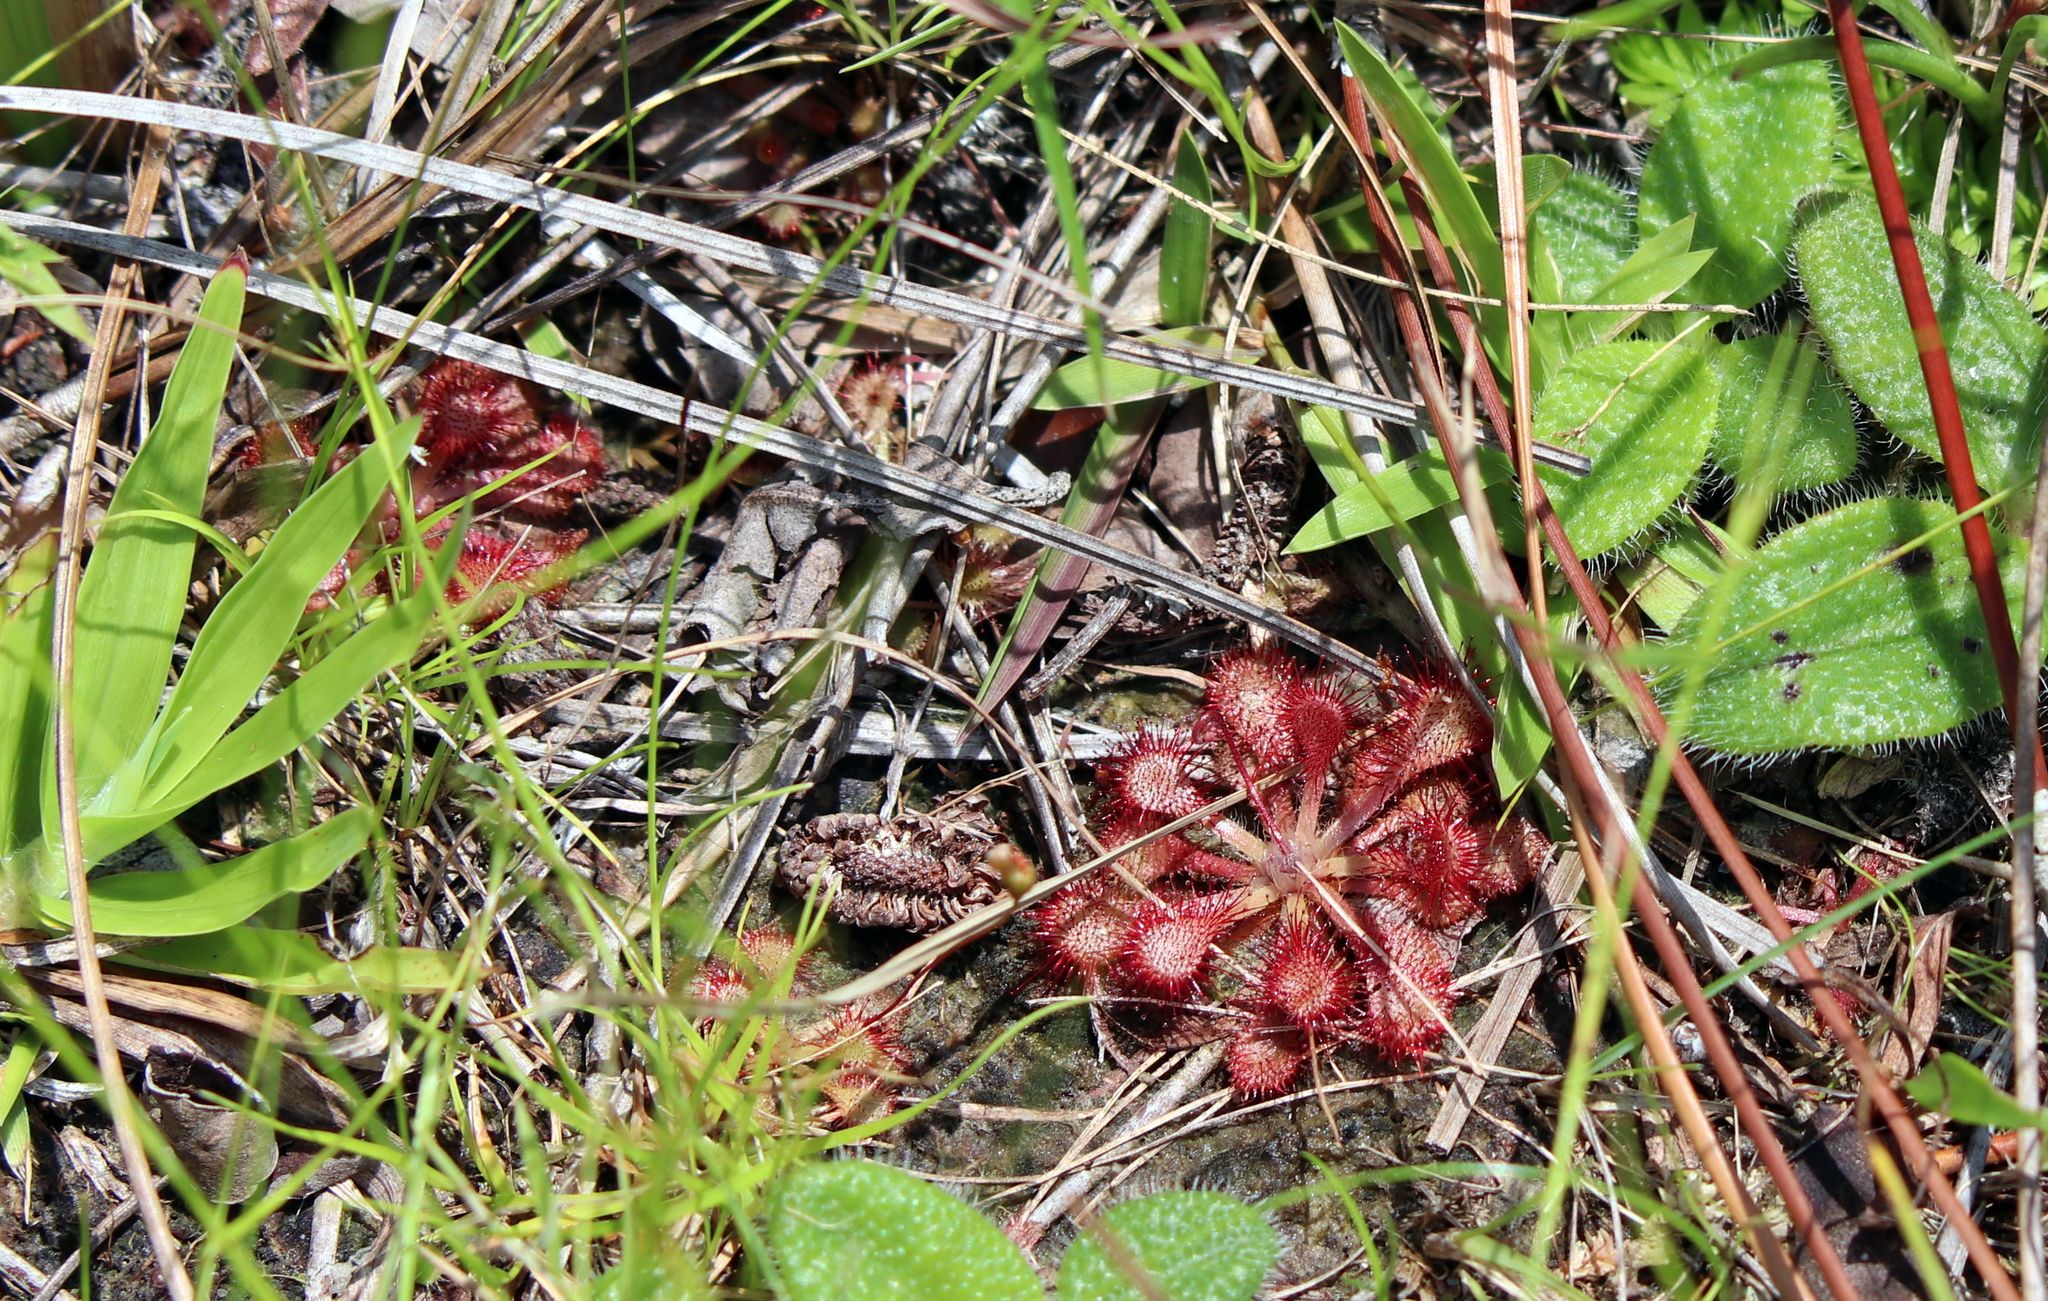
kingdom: Plantae
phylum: Tracheophyta
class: Magnoliopsida
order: Caryophyllales
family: Droseraceae
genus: Drosera
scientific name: Drosera capillaris
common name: Pink sundew
